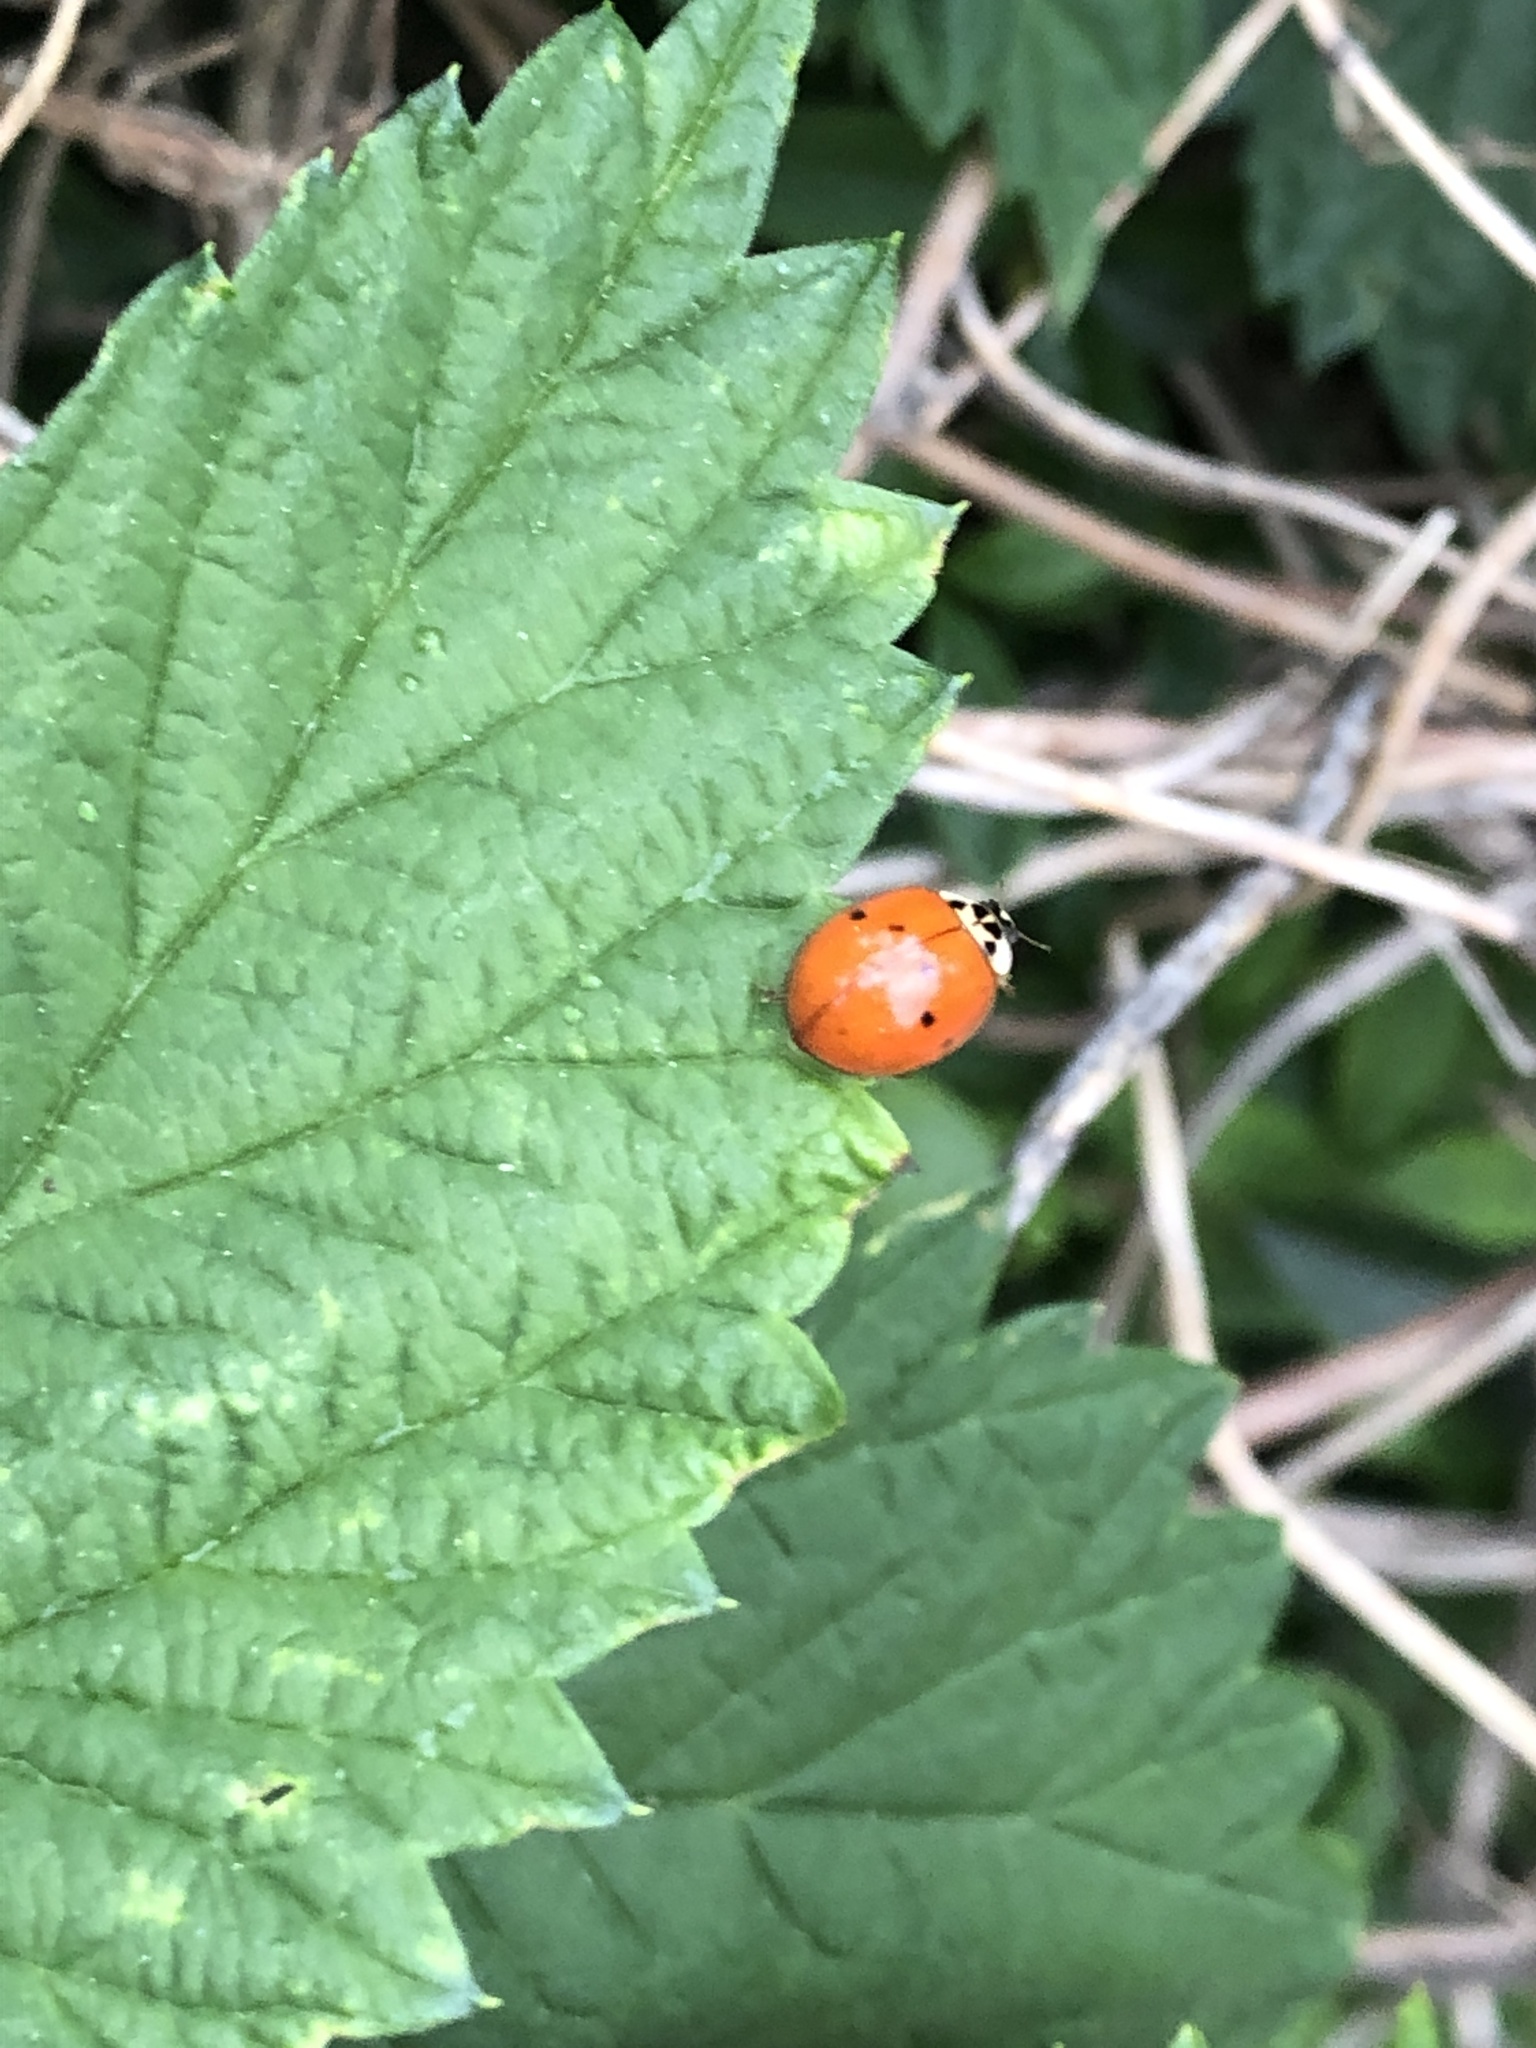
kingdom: Animalia
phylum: Arthropoda
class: Insecta
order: Coleoptera
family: Coccinellidae
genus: Harmonia
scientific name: Harmonia axyridis
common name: Harlequin ladybird
